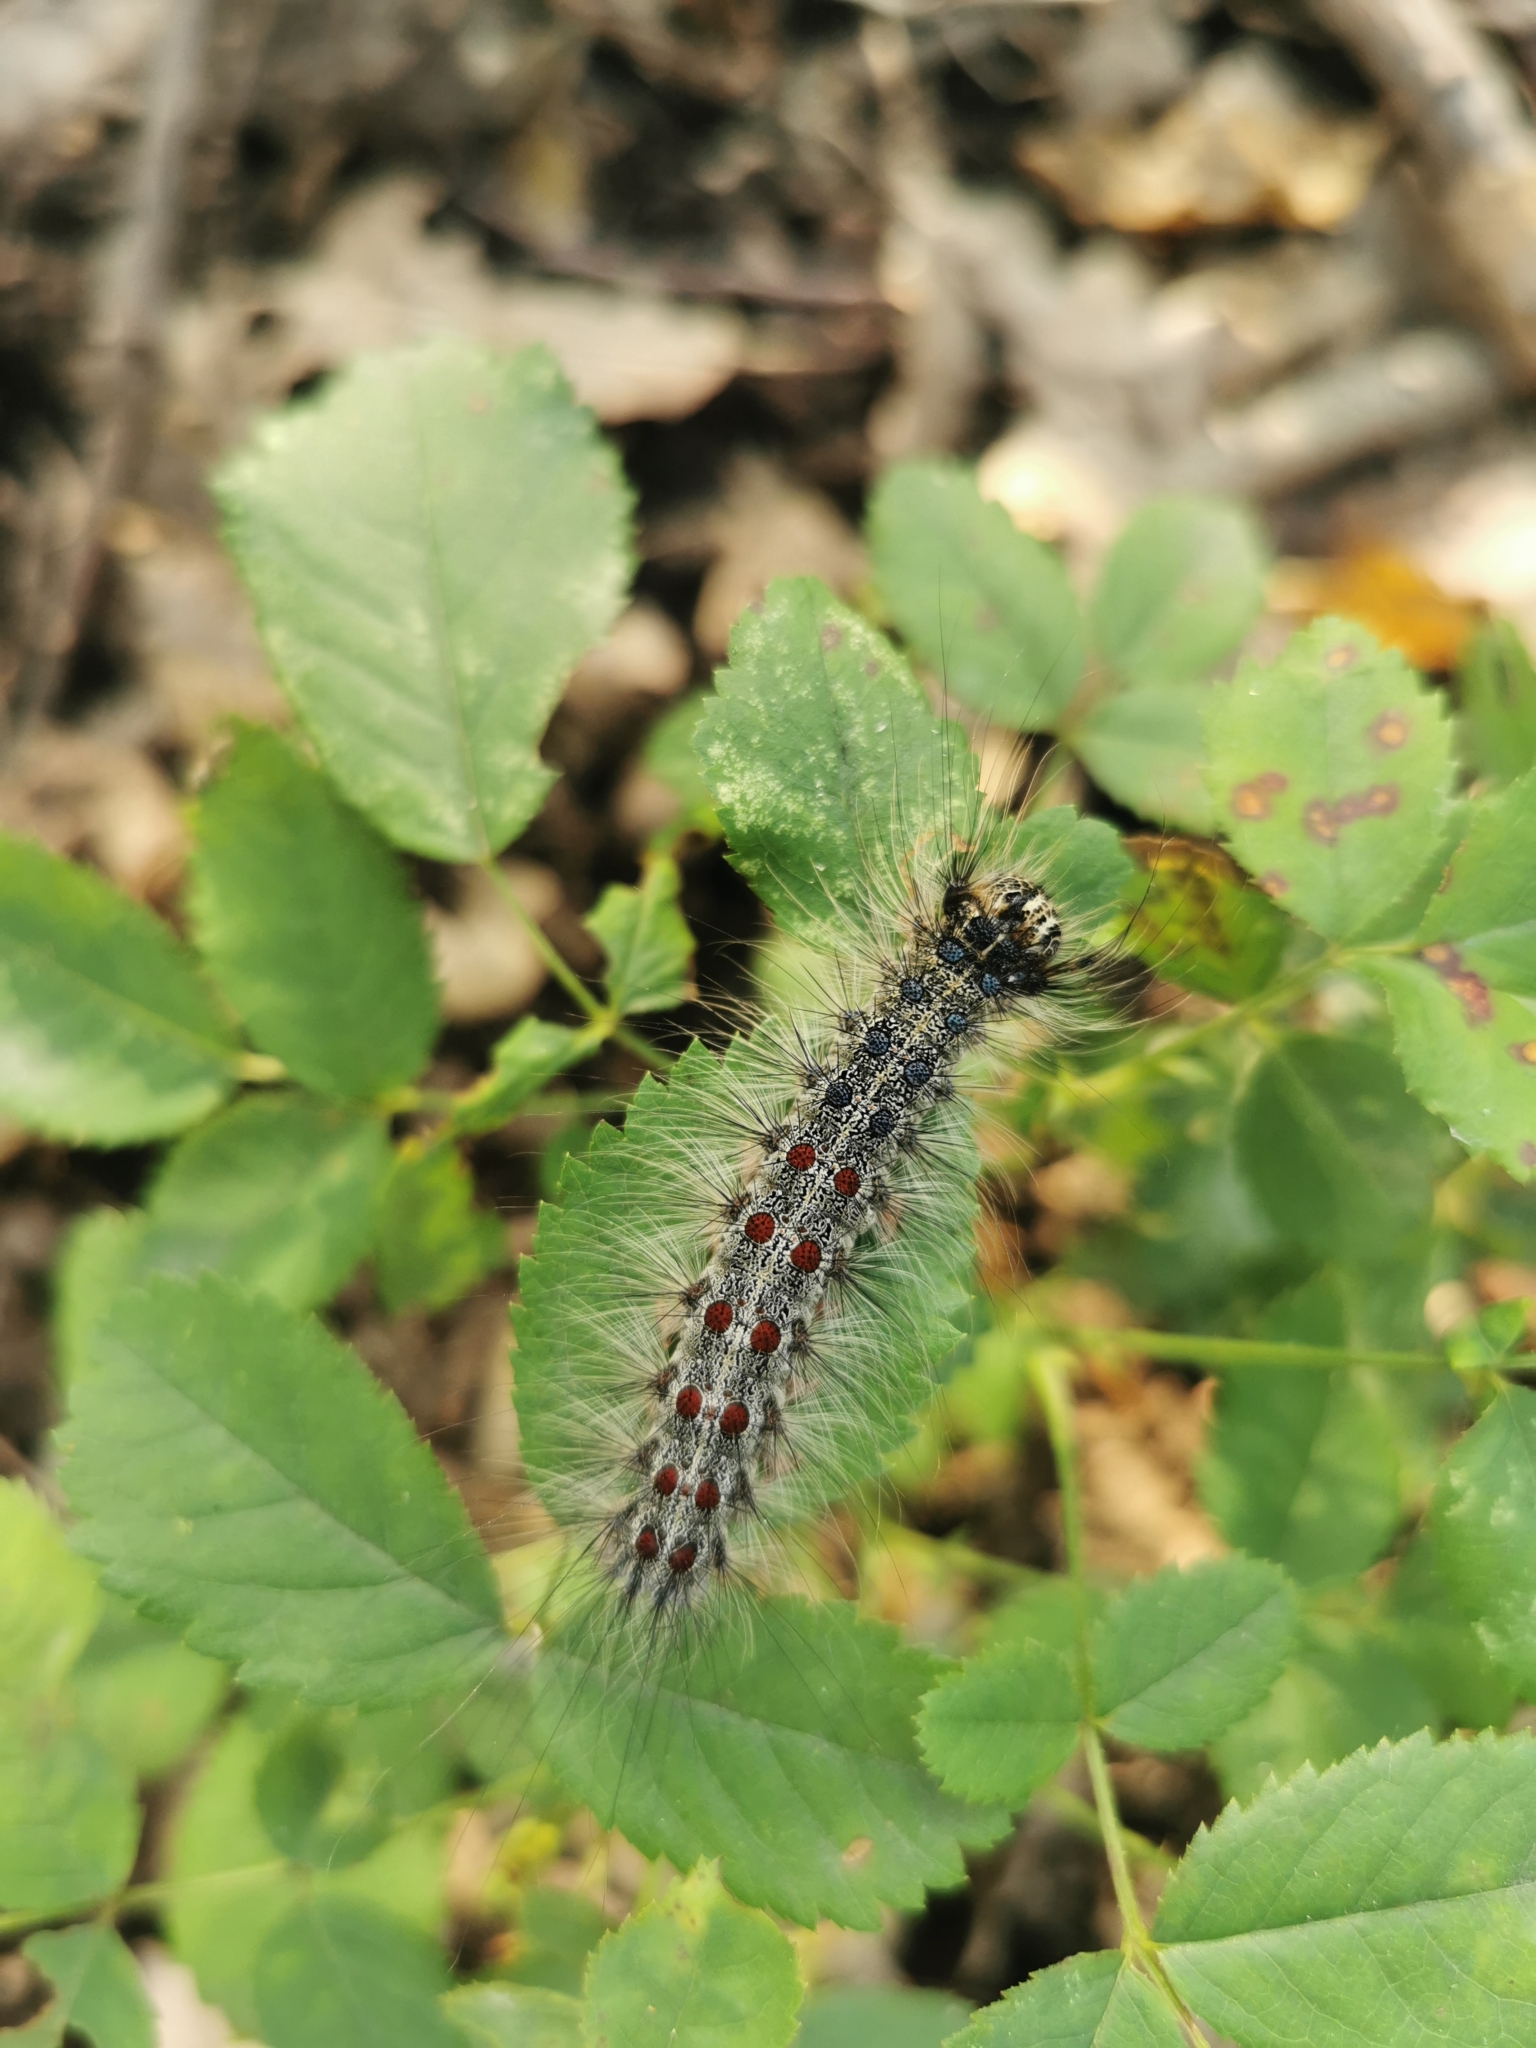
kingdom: Animalia
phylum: Arthropoda
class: Insecta
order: Lepidoptera
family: Erebidae
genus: Lymantria
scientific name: Lymantria dispar
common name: Gypsy moth
